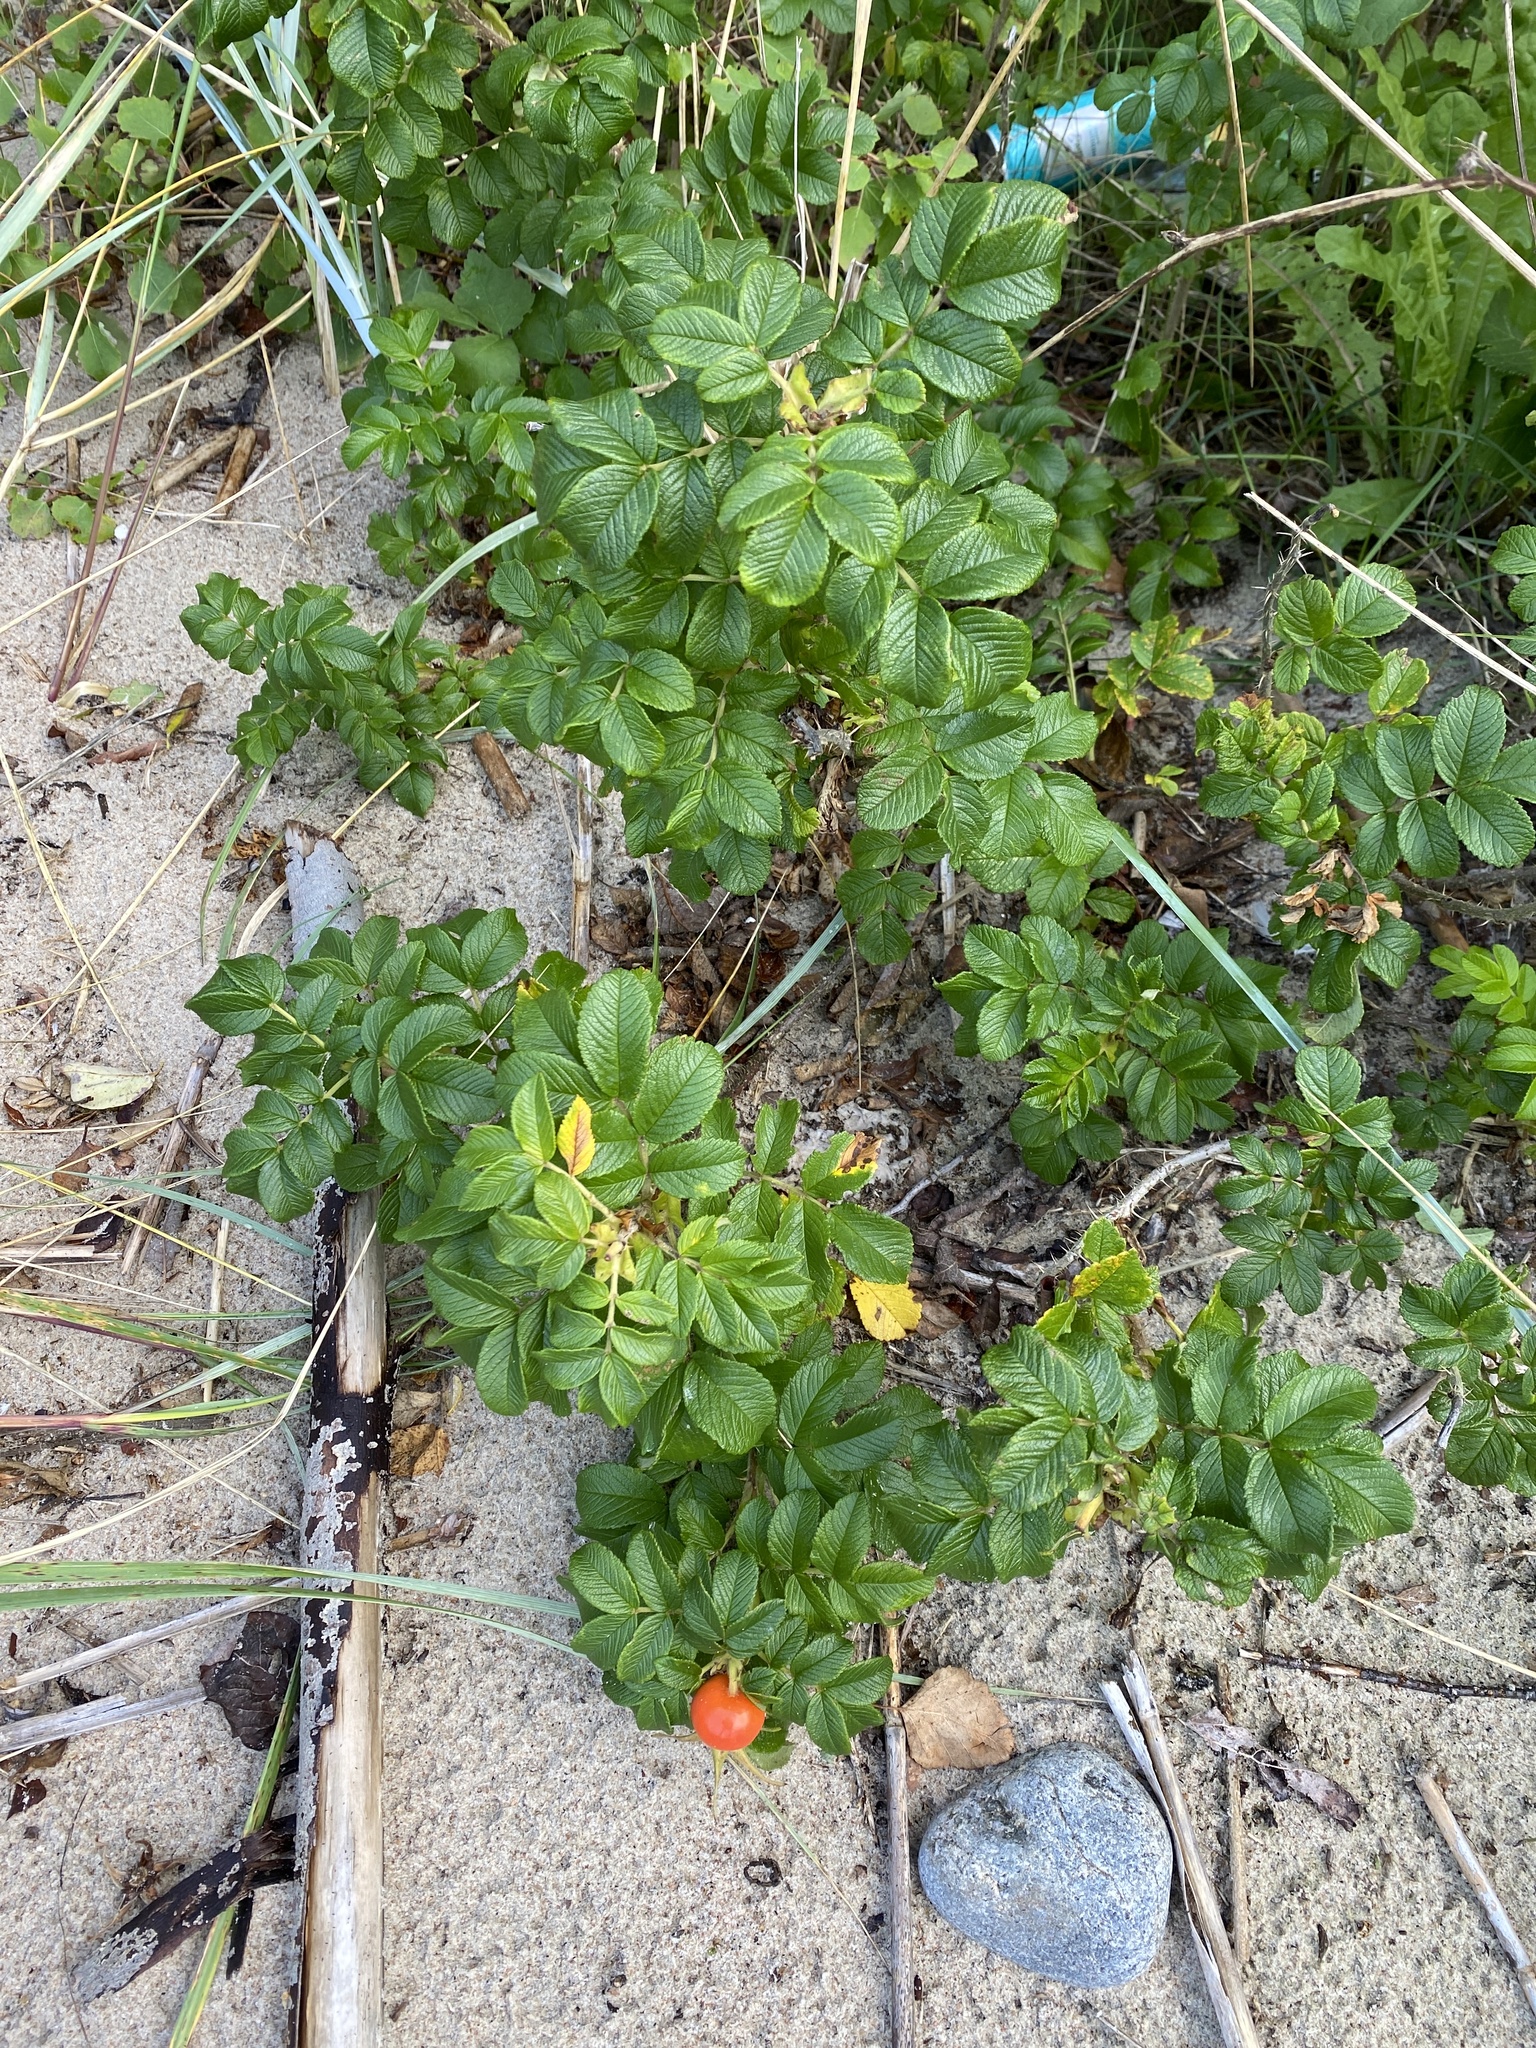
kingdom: Plantae
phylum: Tracheophyta
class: Magnoliopsida
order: Rosales
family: Rosaceae
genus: Rosa
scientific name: Rosa rugosa
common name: Japanese rose
